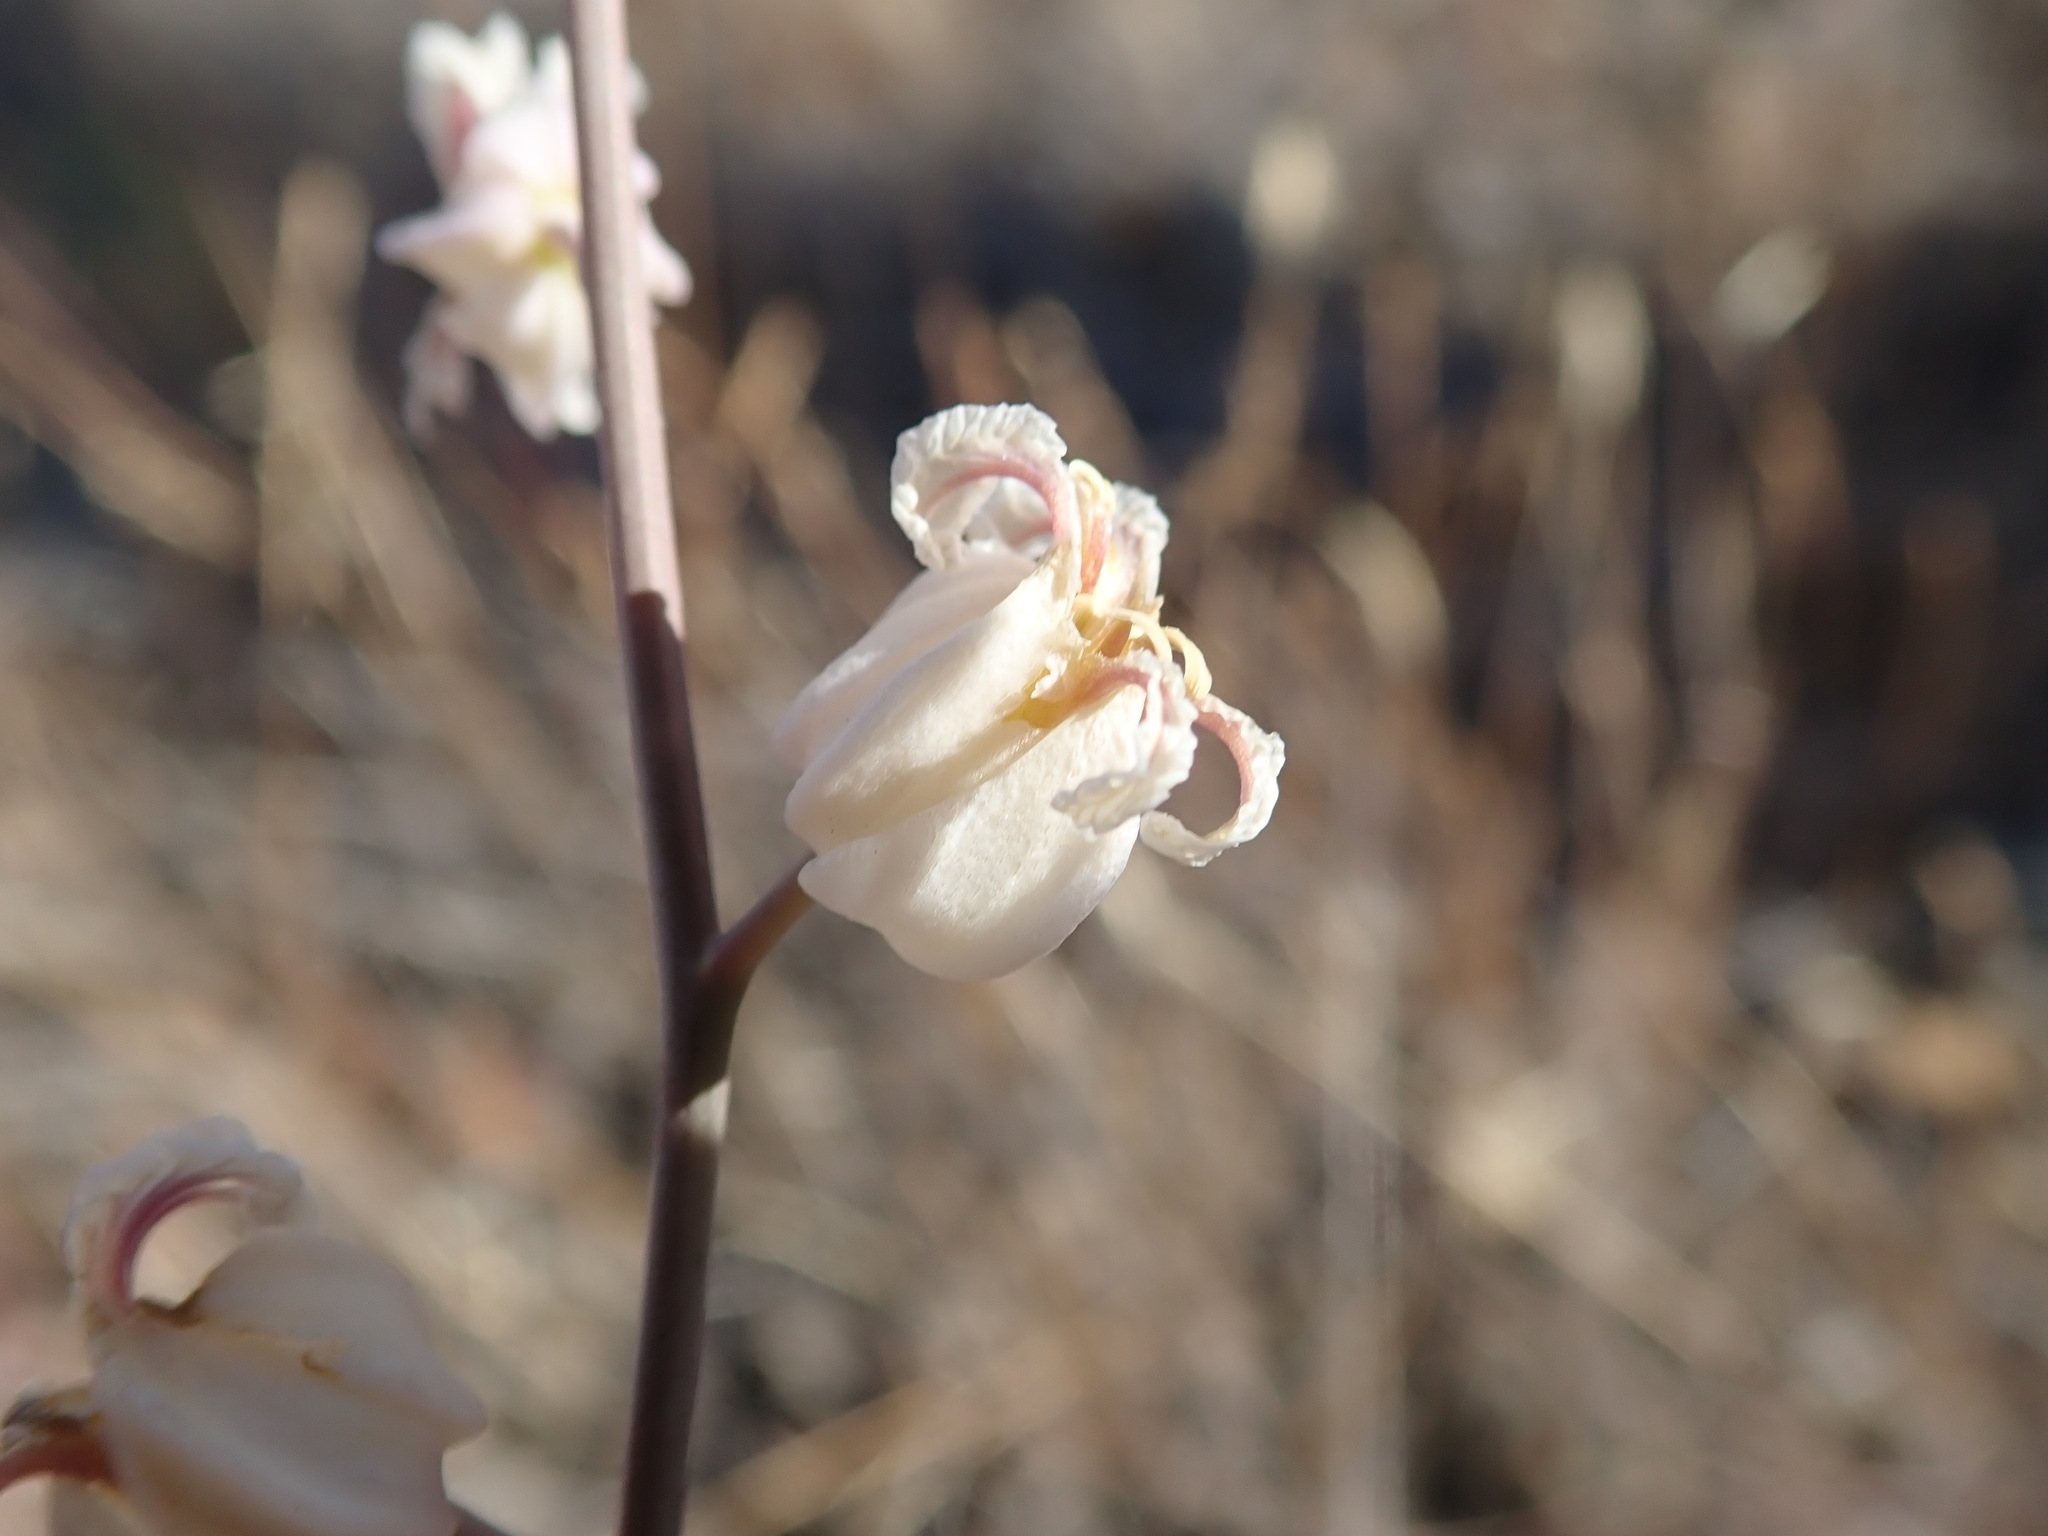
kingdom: Plantae
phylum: Tracheophyta
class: Magnoliopsida
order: Brassicales
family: Brassicaceae
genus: Streptanthus
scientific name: Streptanthus glandulosus
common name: Jewel-flower
